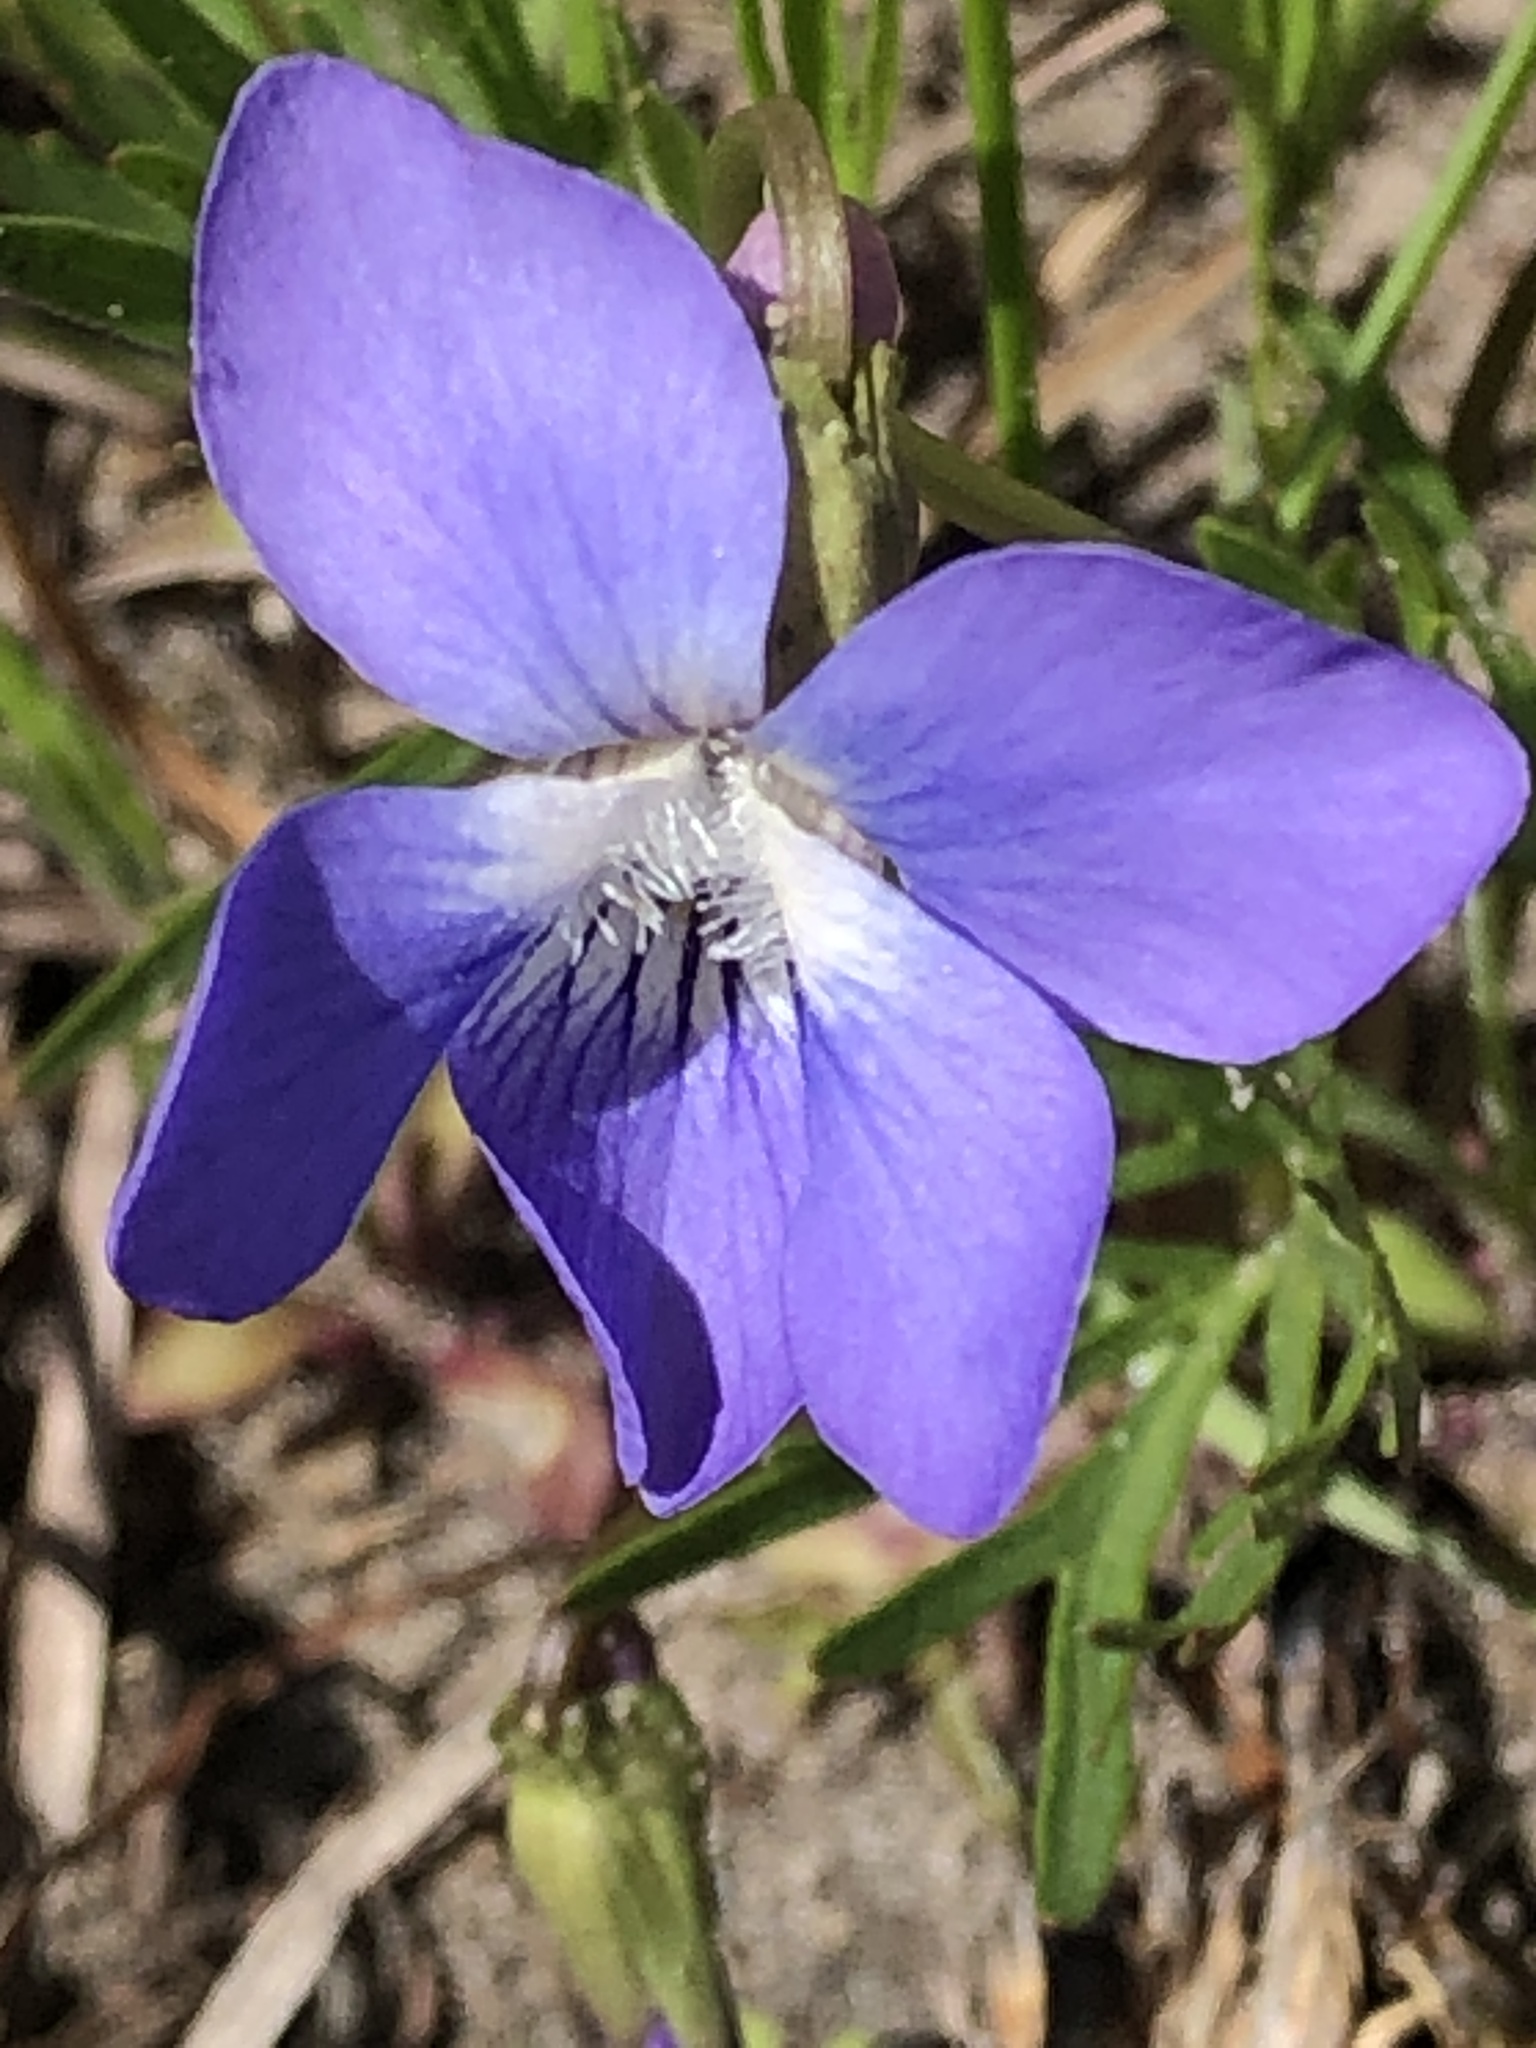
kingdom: Plantae
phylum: Tracheophyta
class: Magnoliopsida
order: Malpighiales
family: Violaceae
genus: Viola
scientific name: Viola pedatifida
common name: Prairie violet
